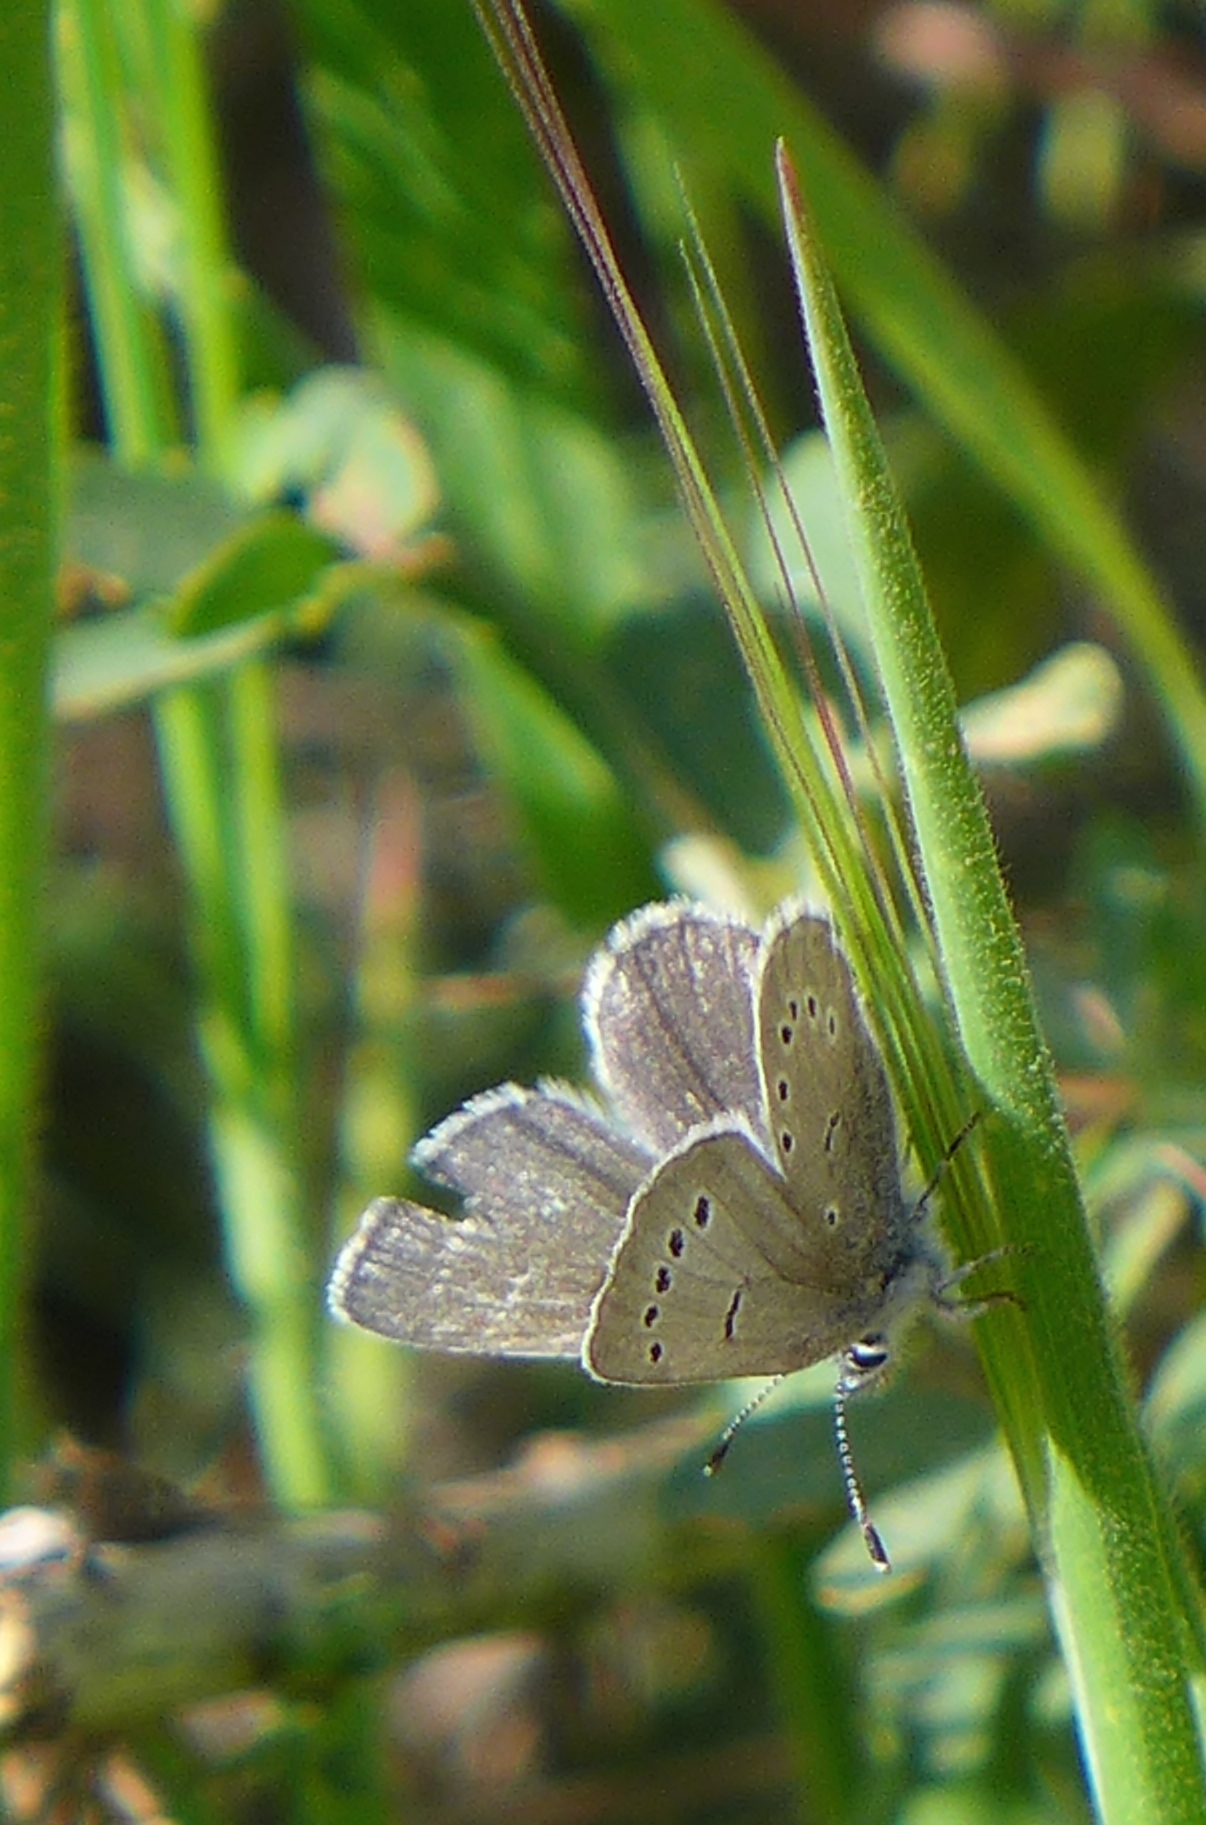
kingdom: Animalia
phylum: Arthropoda
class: Insecta
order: Lepidoptera
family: Lycaenidae
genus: Glaucopsyche
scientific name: Glaucopsyche lygdamus
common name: Silvery blue
